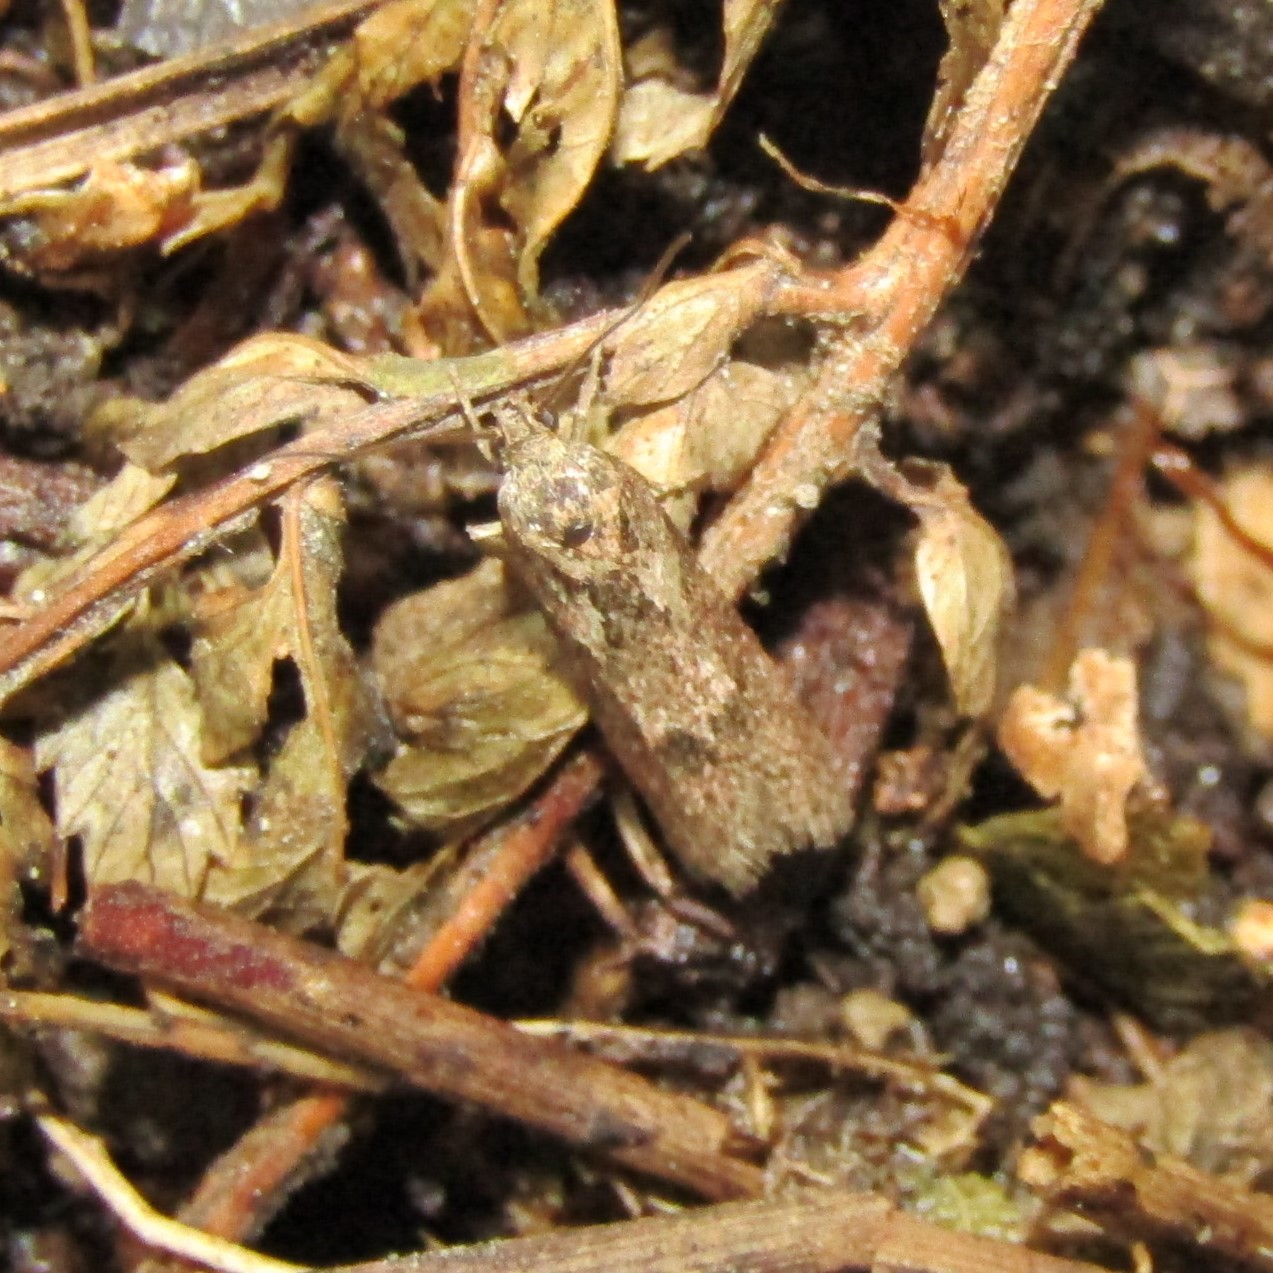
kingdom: Animalia
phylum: Arthropoda
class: Insecta
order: Lepidoptera
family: Oecophoridae
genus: Chersadaula
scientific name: Chersadaula ochrogastra
